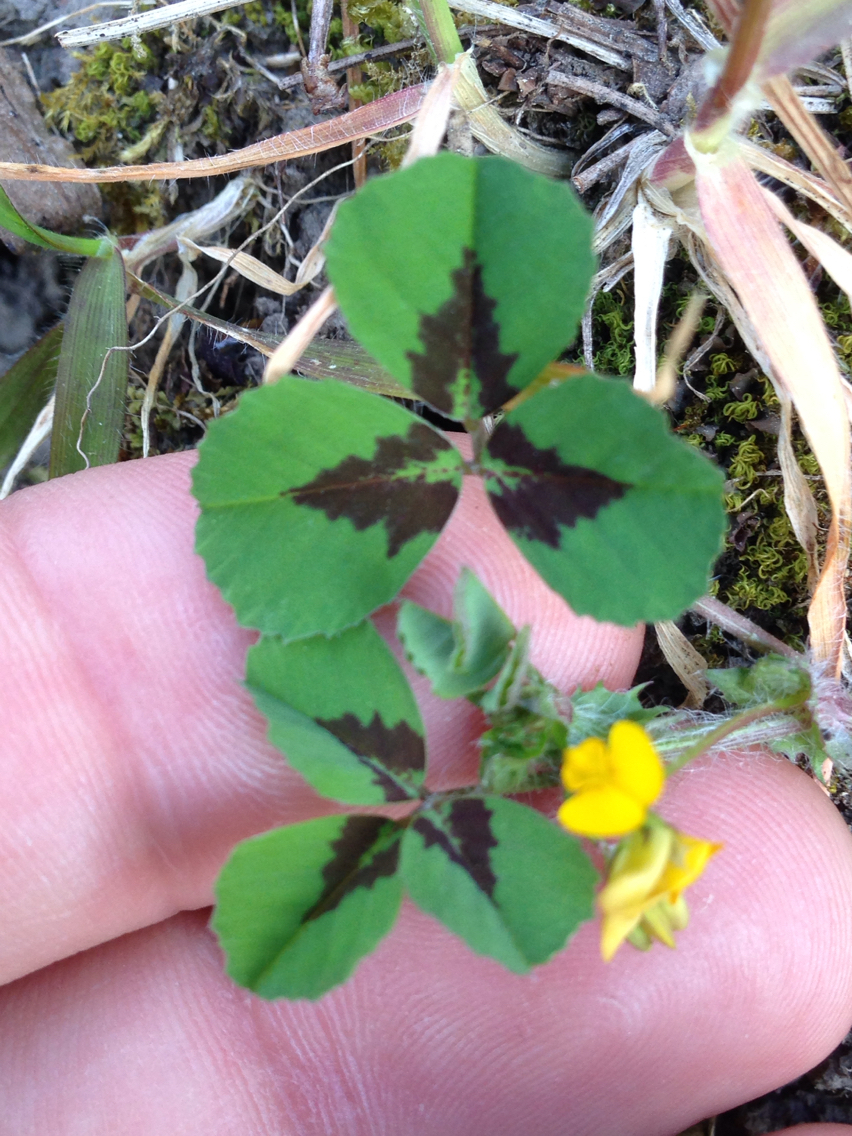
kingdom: Plantae
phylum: Tracheophyta
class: Magnoliopsida
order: Fabales
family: Fabaceae
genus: Medicago
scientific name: Medicago arabica
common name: Spotted medick
